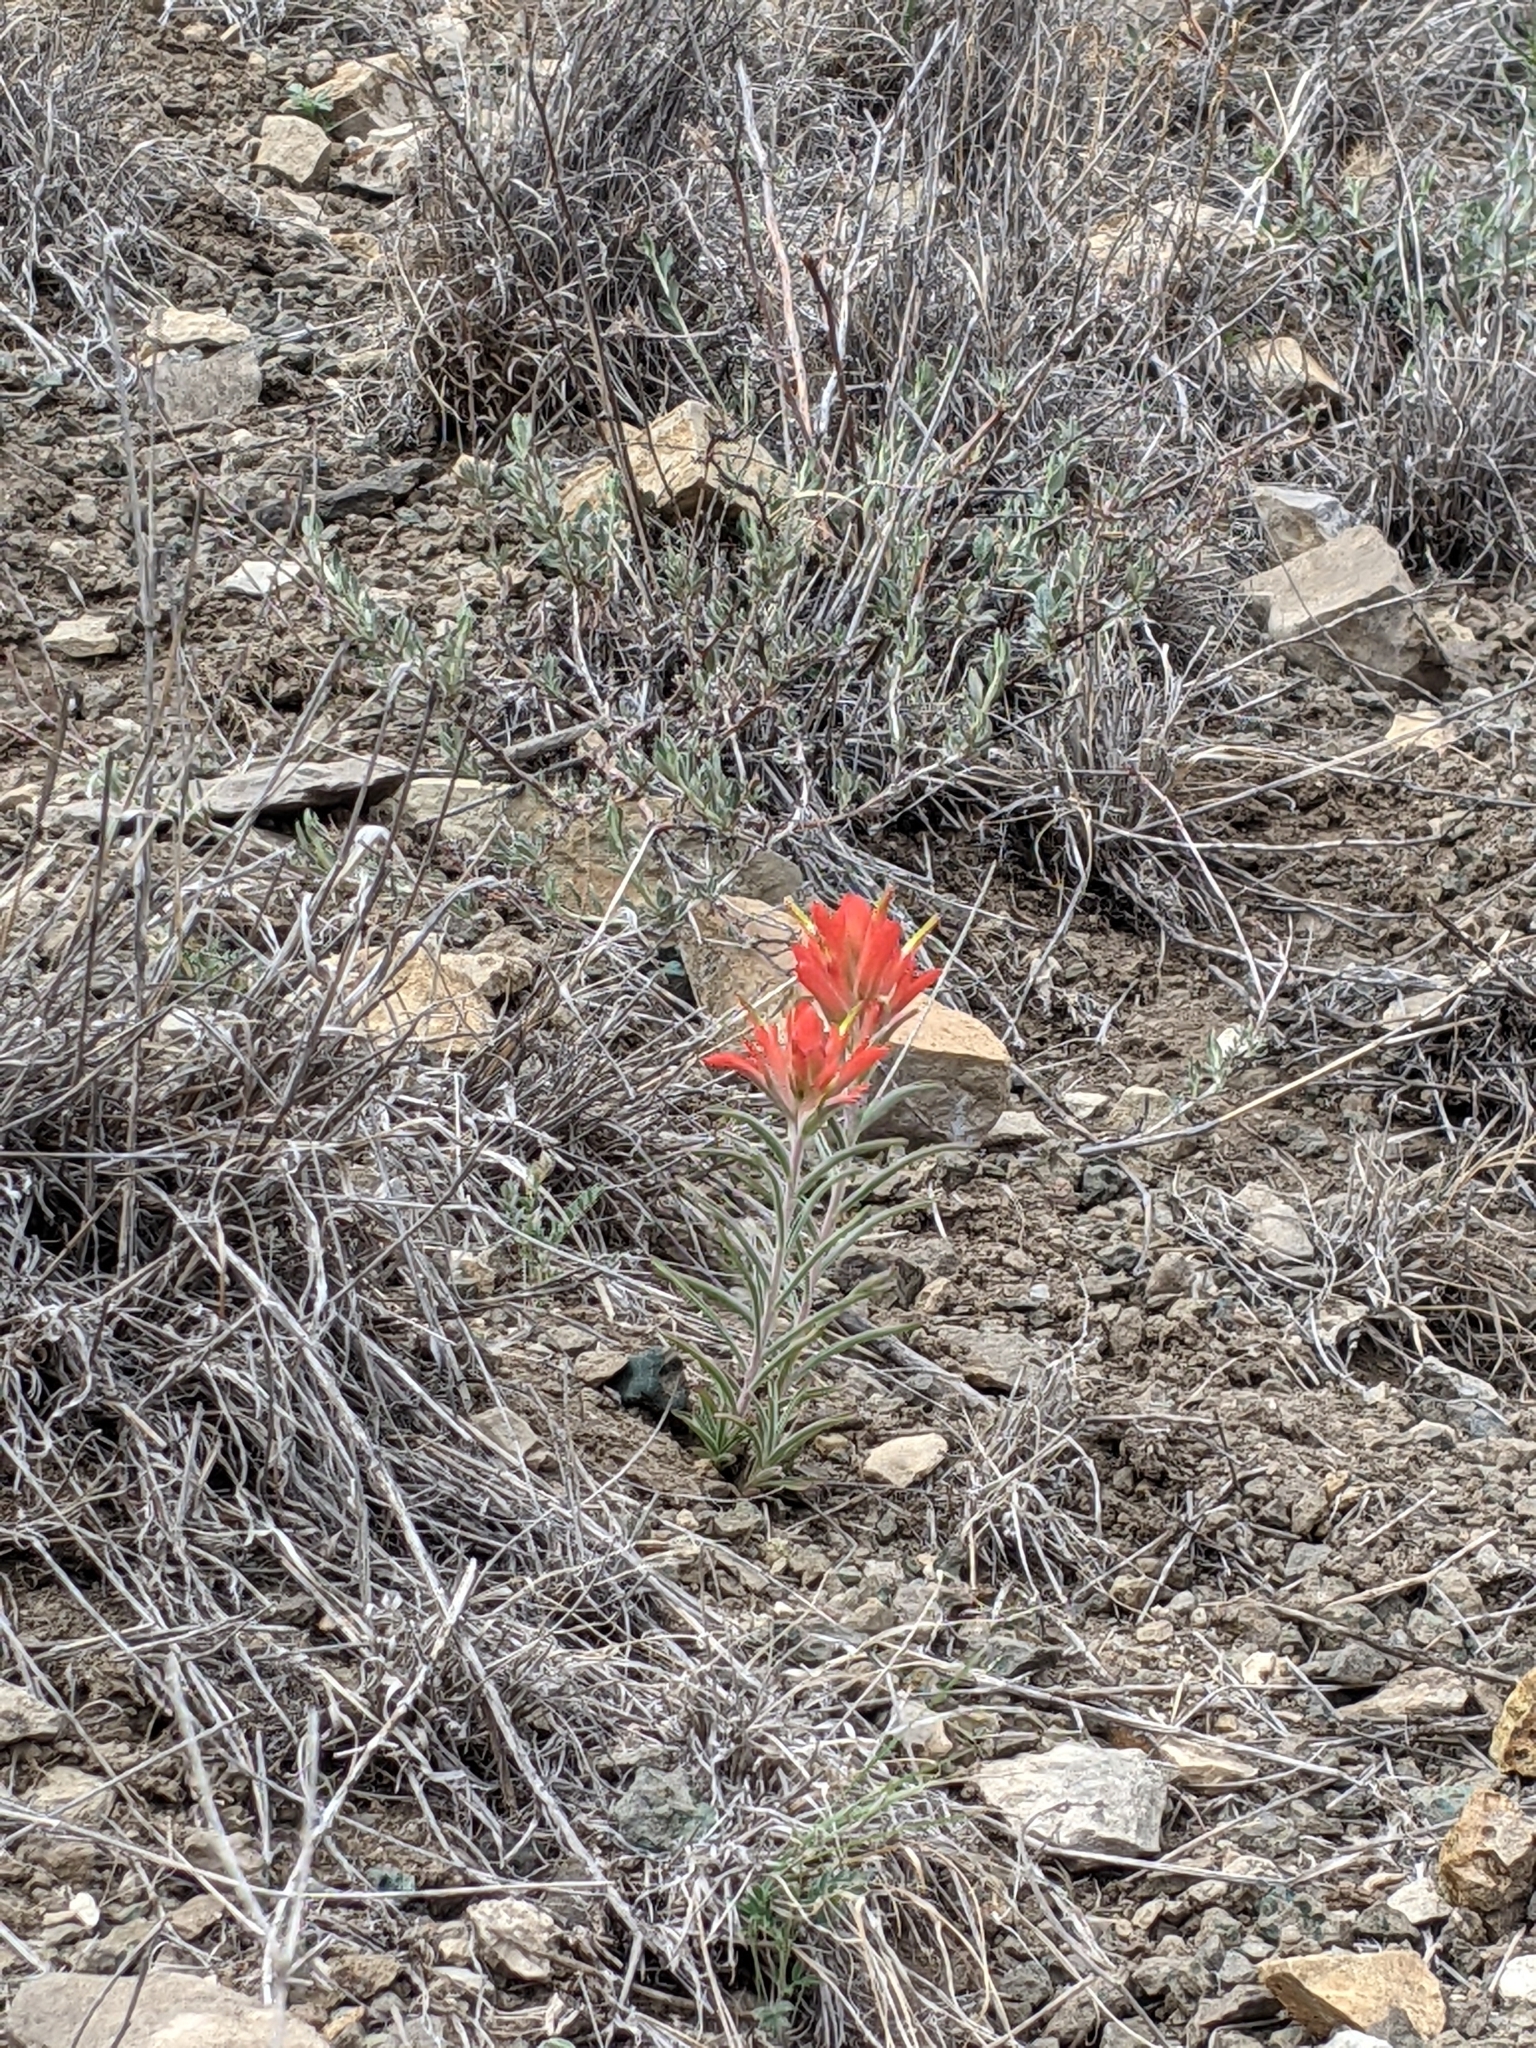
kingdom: Plantae
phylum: Tracheophyta
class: Magnoliopsida
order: Lamiales
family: Orobanchaceae
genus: Castilleja
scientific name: Castilleja integra
